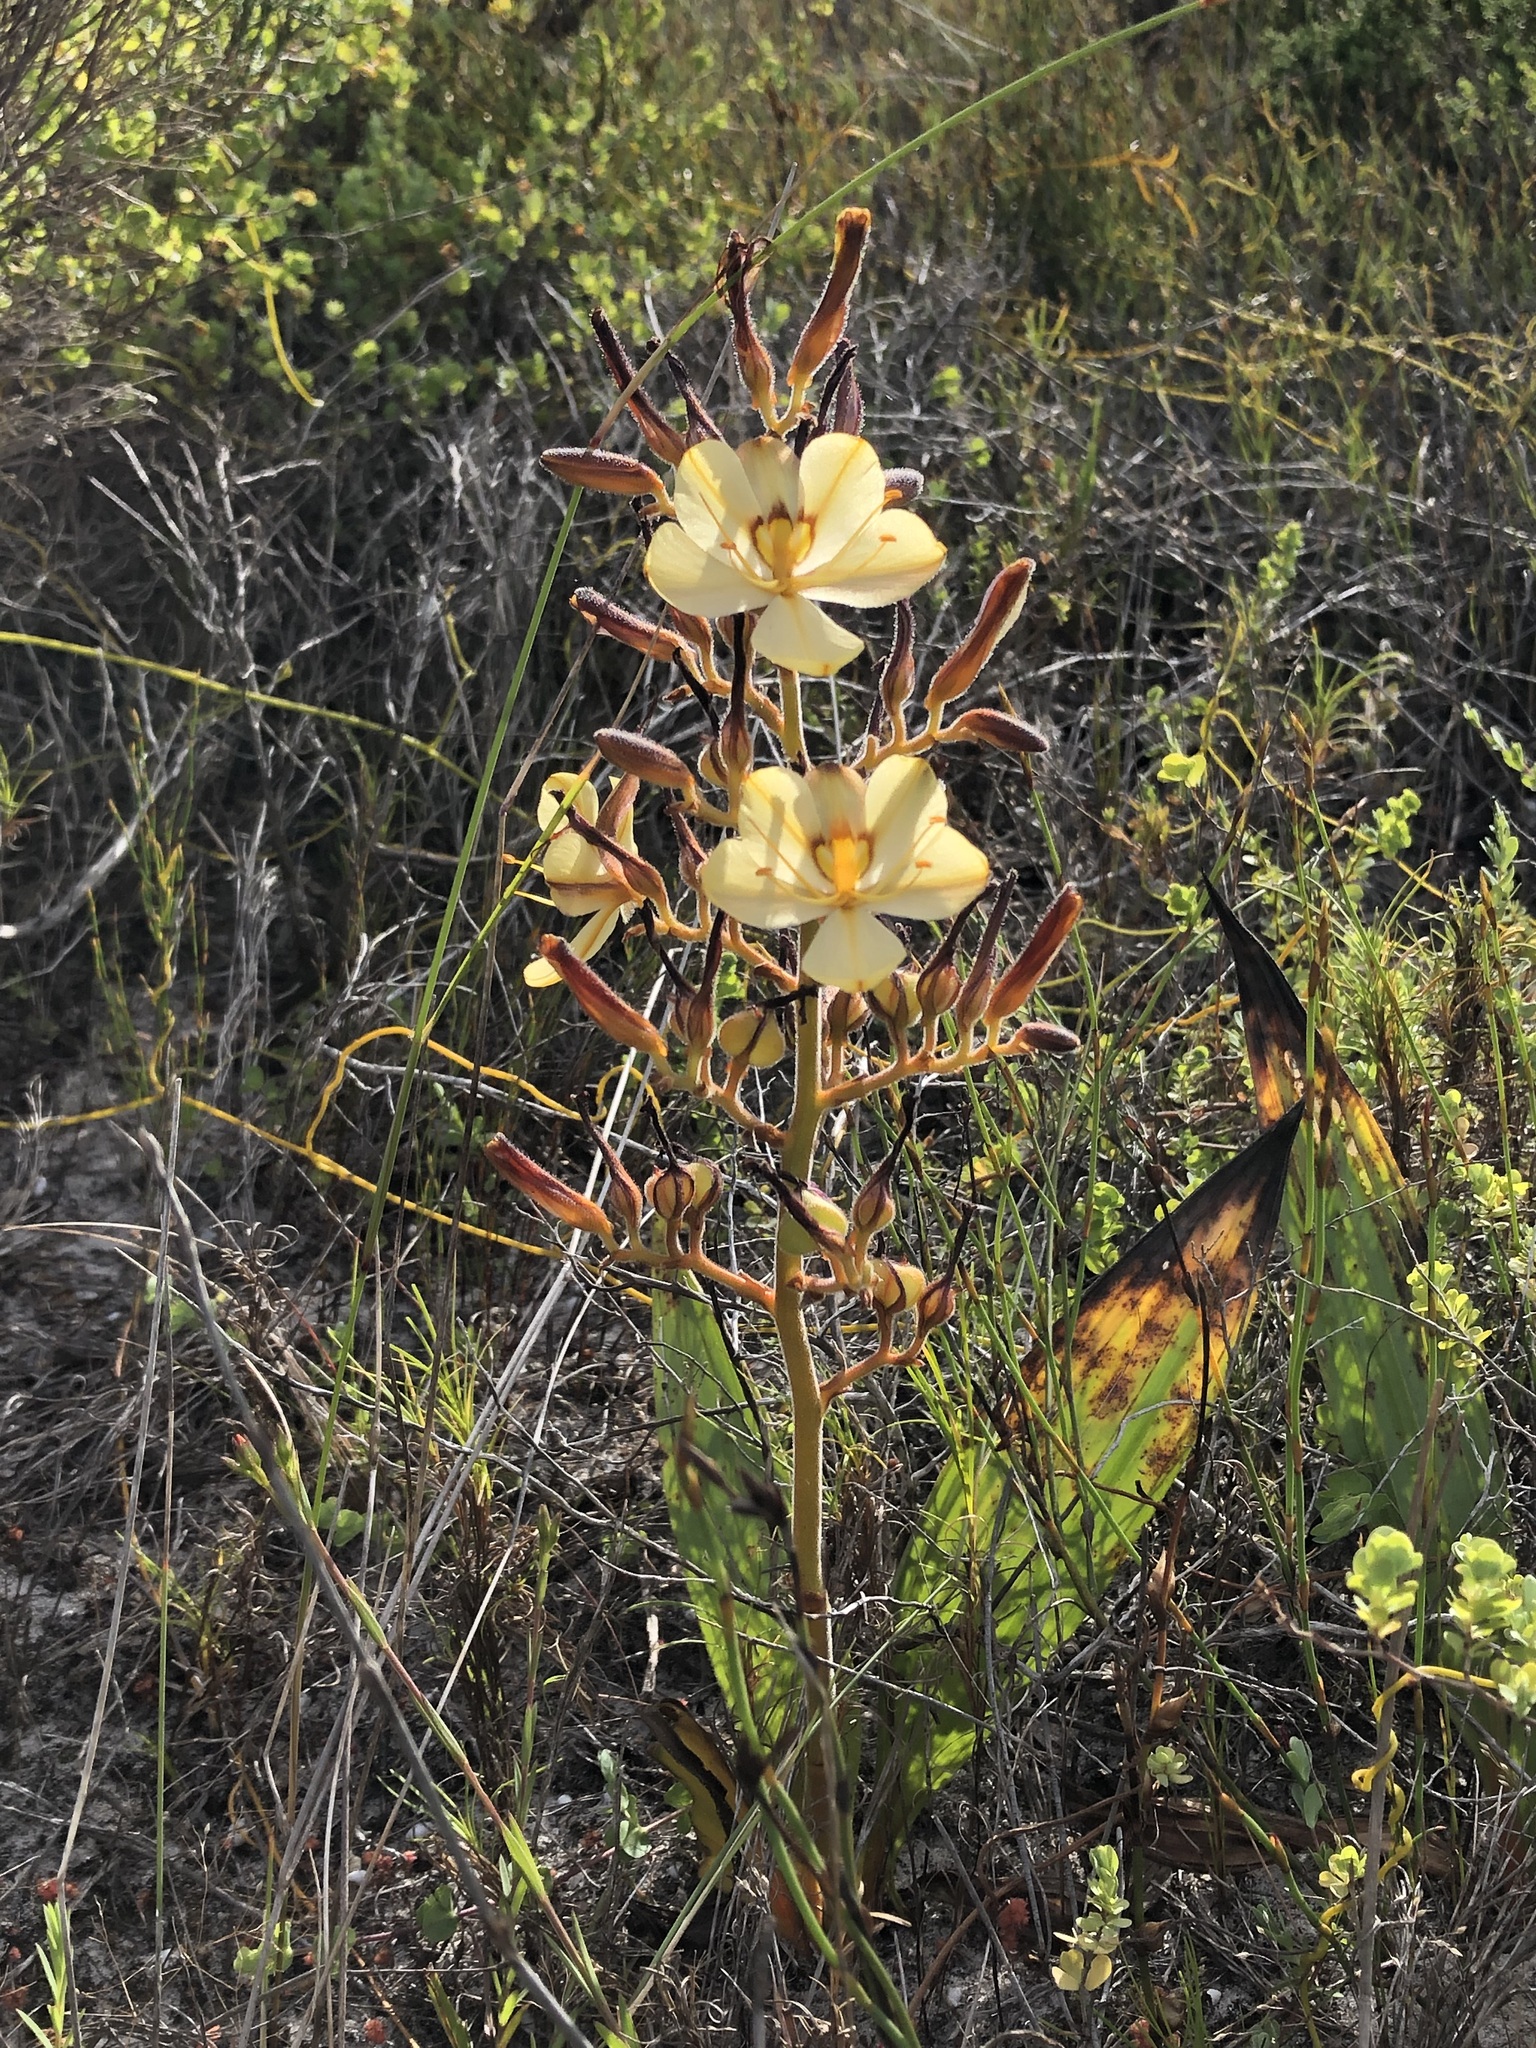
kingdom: Plantae
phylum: Tracheophyta
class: Liliopsida
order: Commelinales
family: Haemodoraceae
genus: Wachendorfia
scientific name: Wachendorfia paniculata
